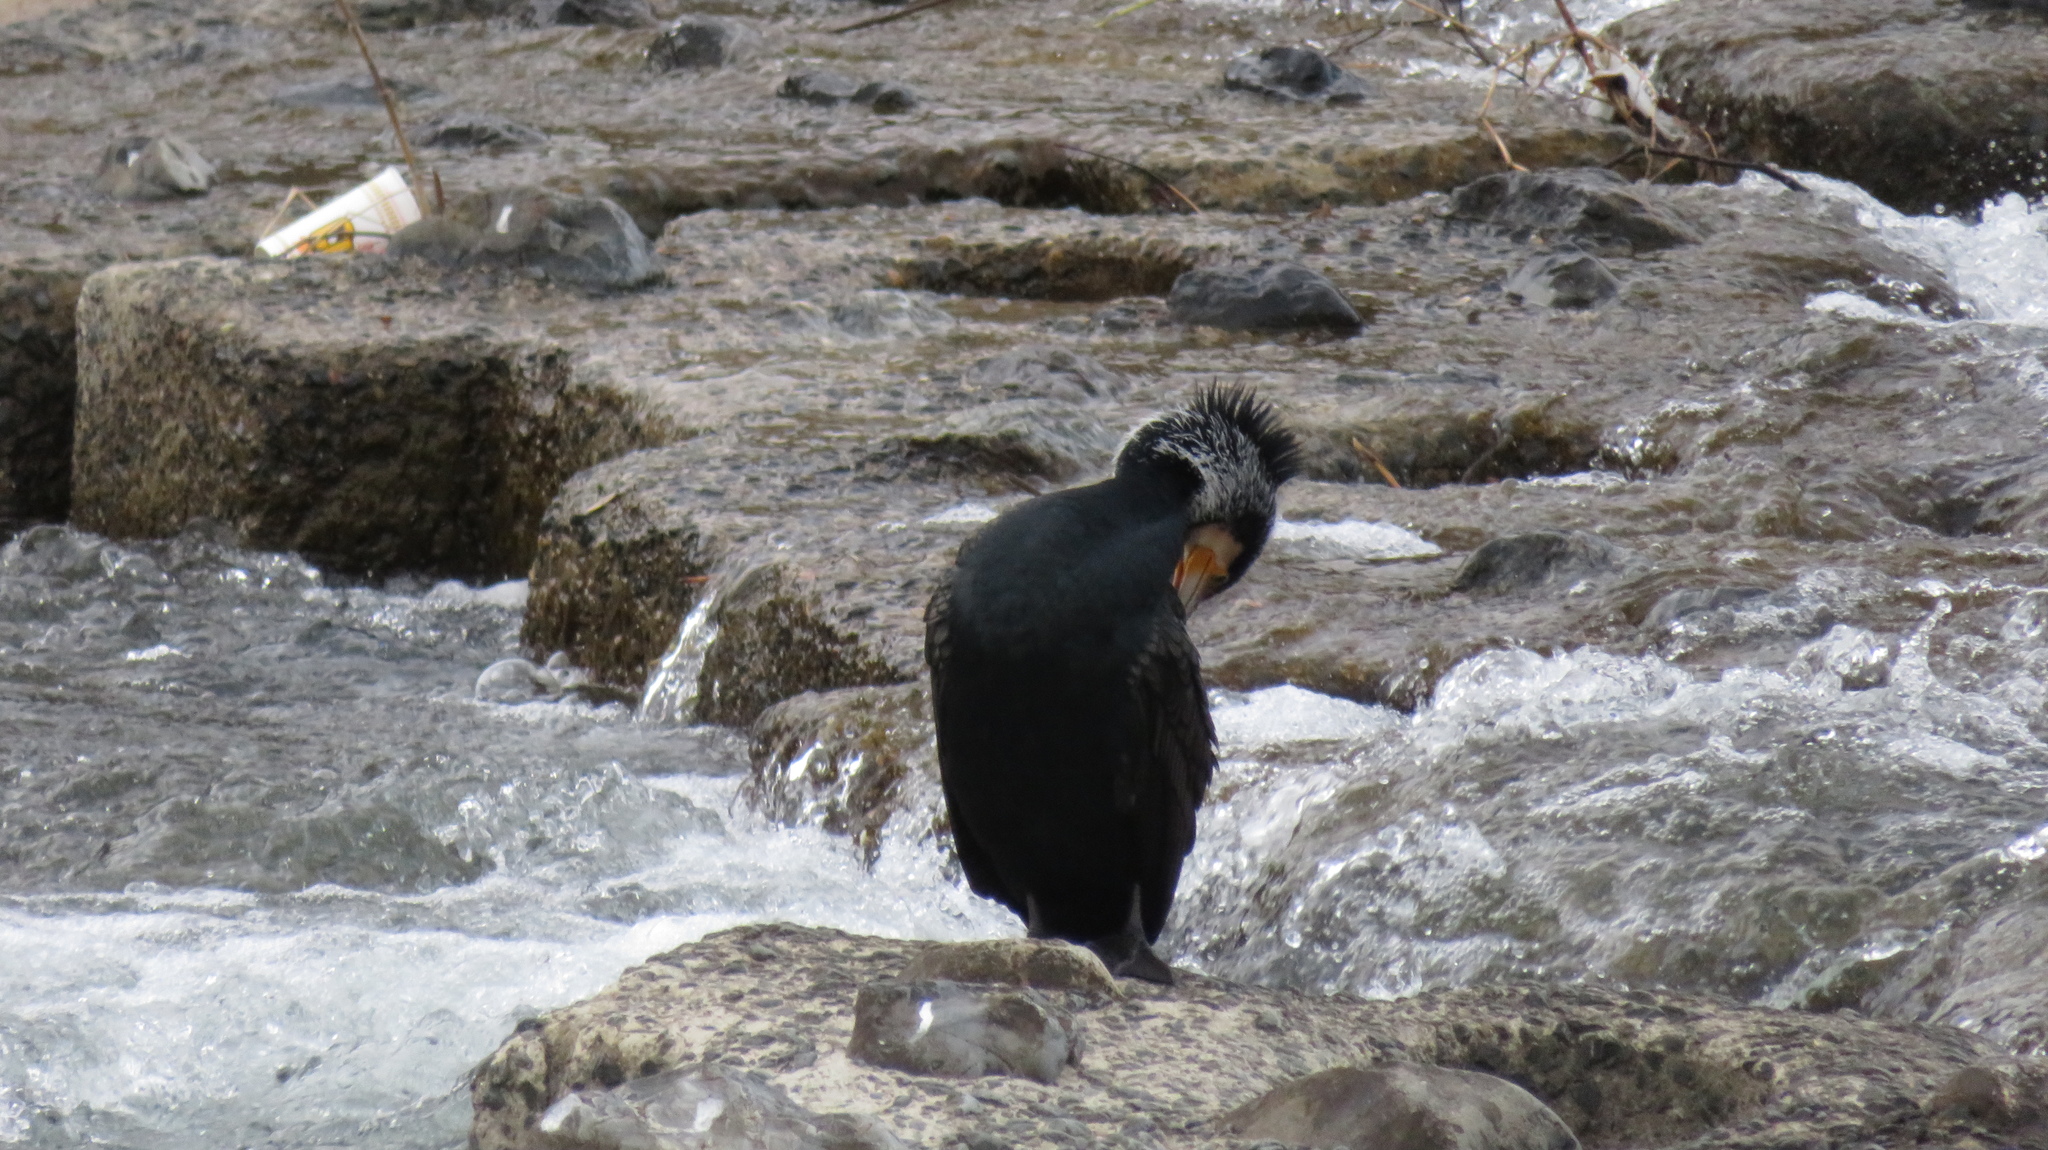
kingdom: Animalia
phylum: Chordata
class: Aves
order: Suliformes
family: Phalacrocoracidae
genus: Phalacrocorax
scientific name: Phalacrocorax carbo
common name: Great cormorant
